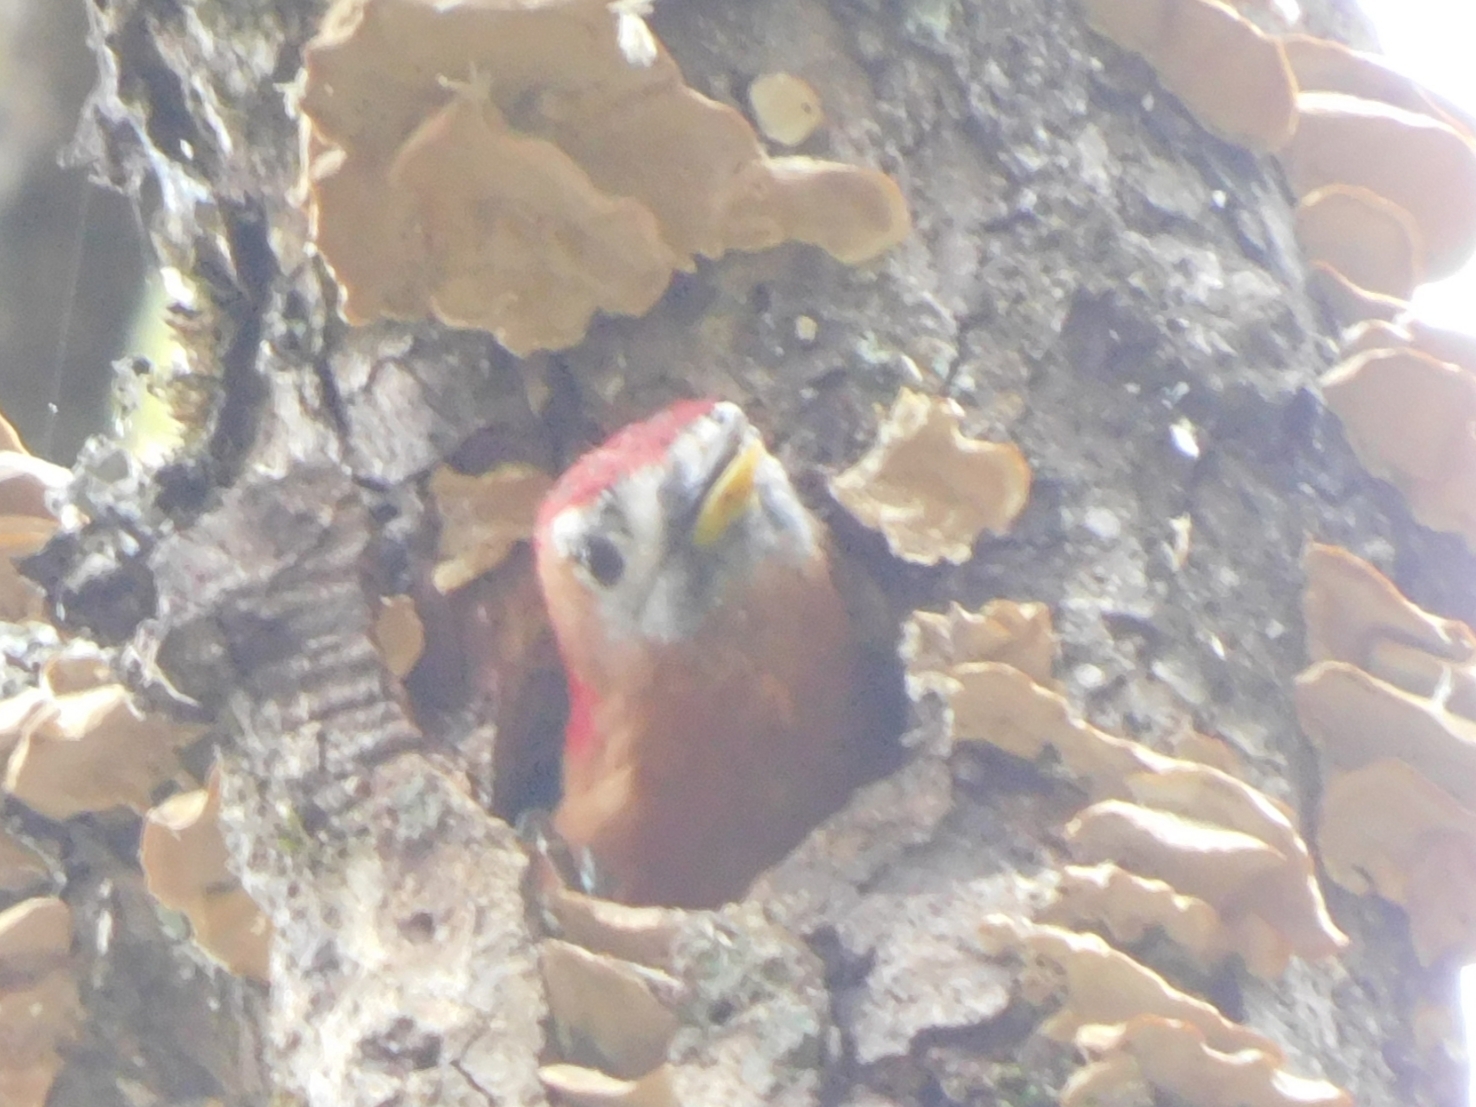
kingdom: Animalia
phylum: Chordata
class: Aves
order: Piciformes
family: Picidae
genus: Dendrocopos
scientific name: Dendrocopos hyperythrus
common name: Rufous-bellied woodpecker
